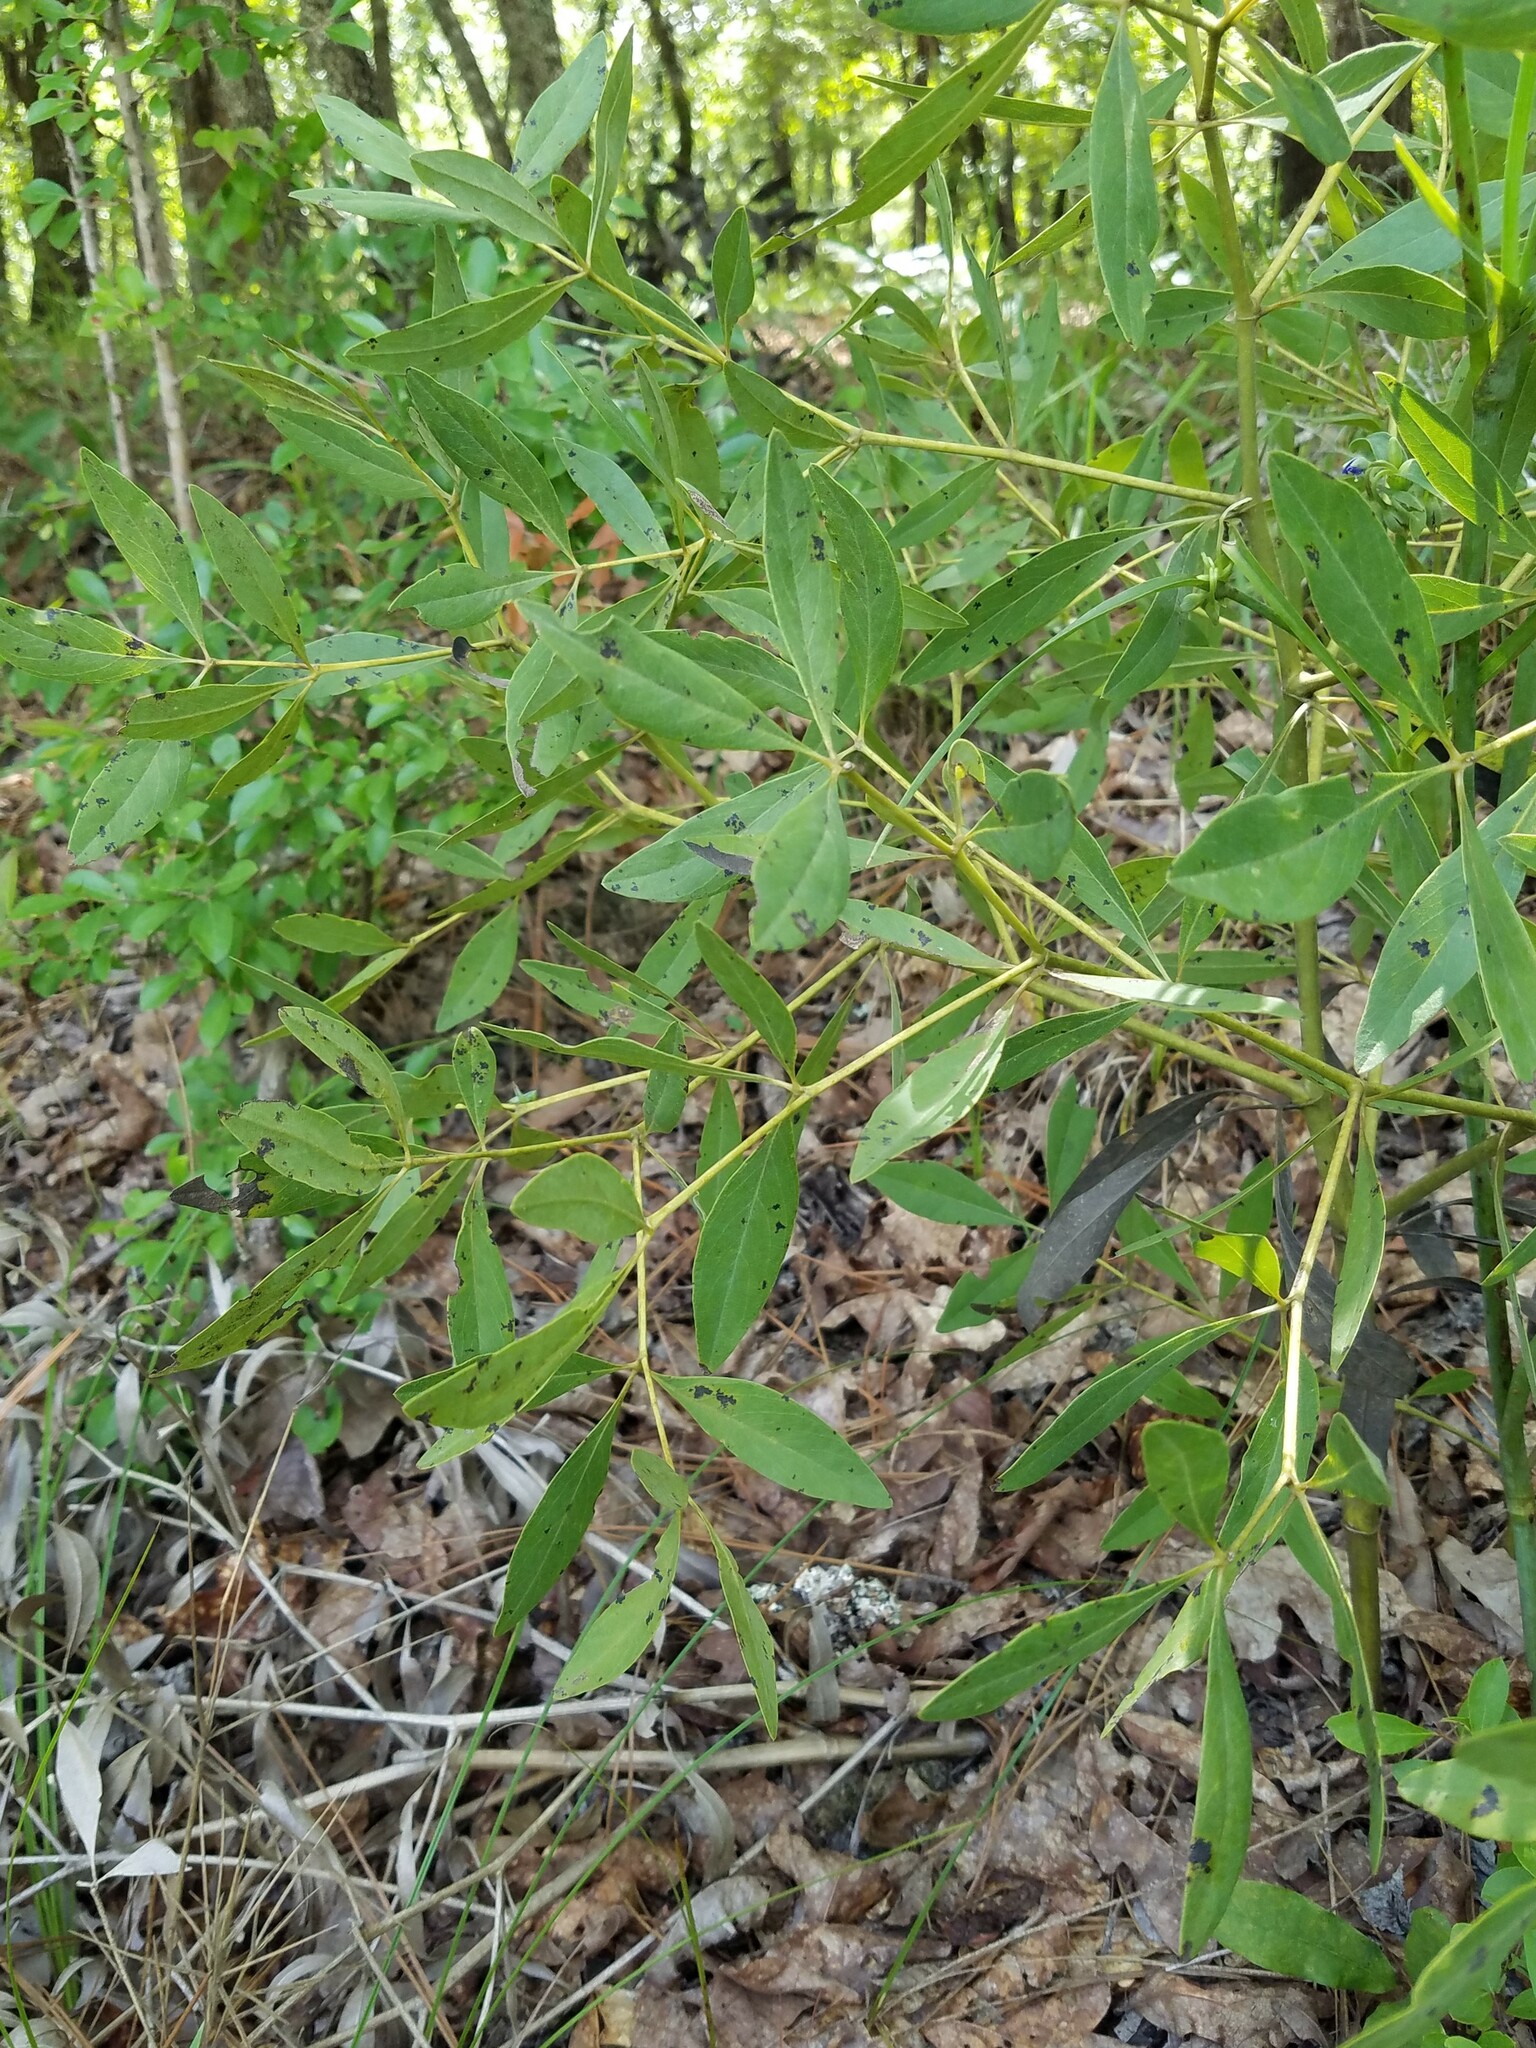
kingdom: Plantae
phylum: Tracheophyta
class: Magnoliopsida
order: Fabales
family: Fabaceae
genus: Baptisia
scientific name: Baptisia lanceolata
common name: Gopherweed
